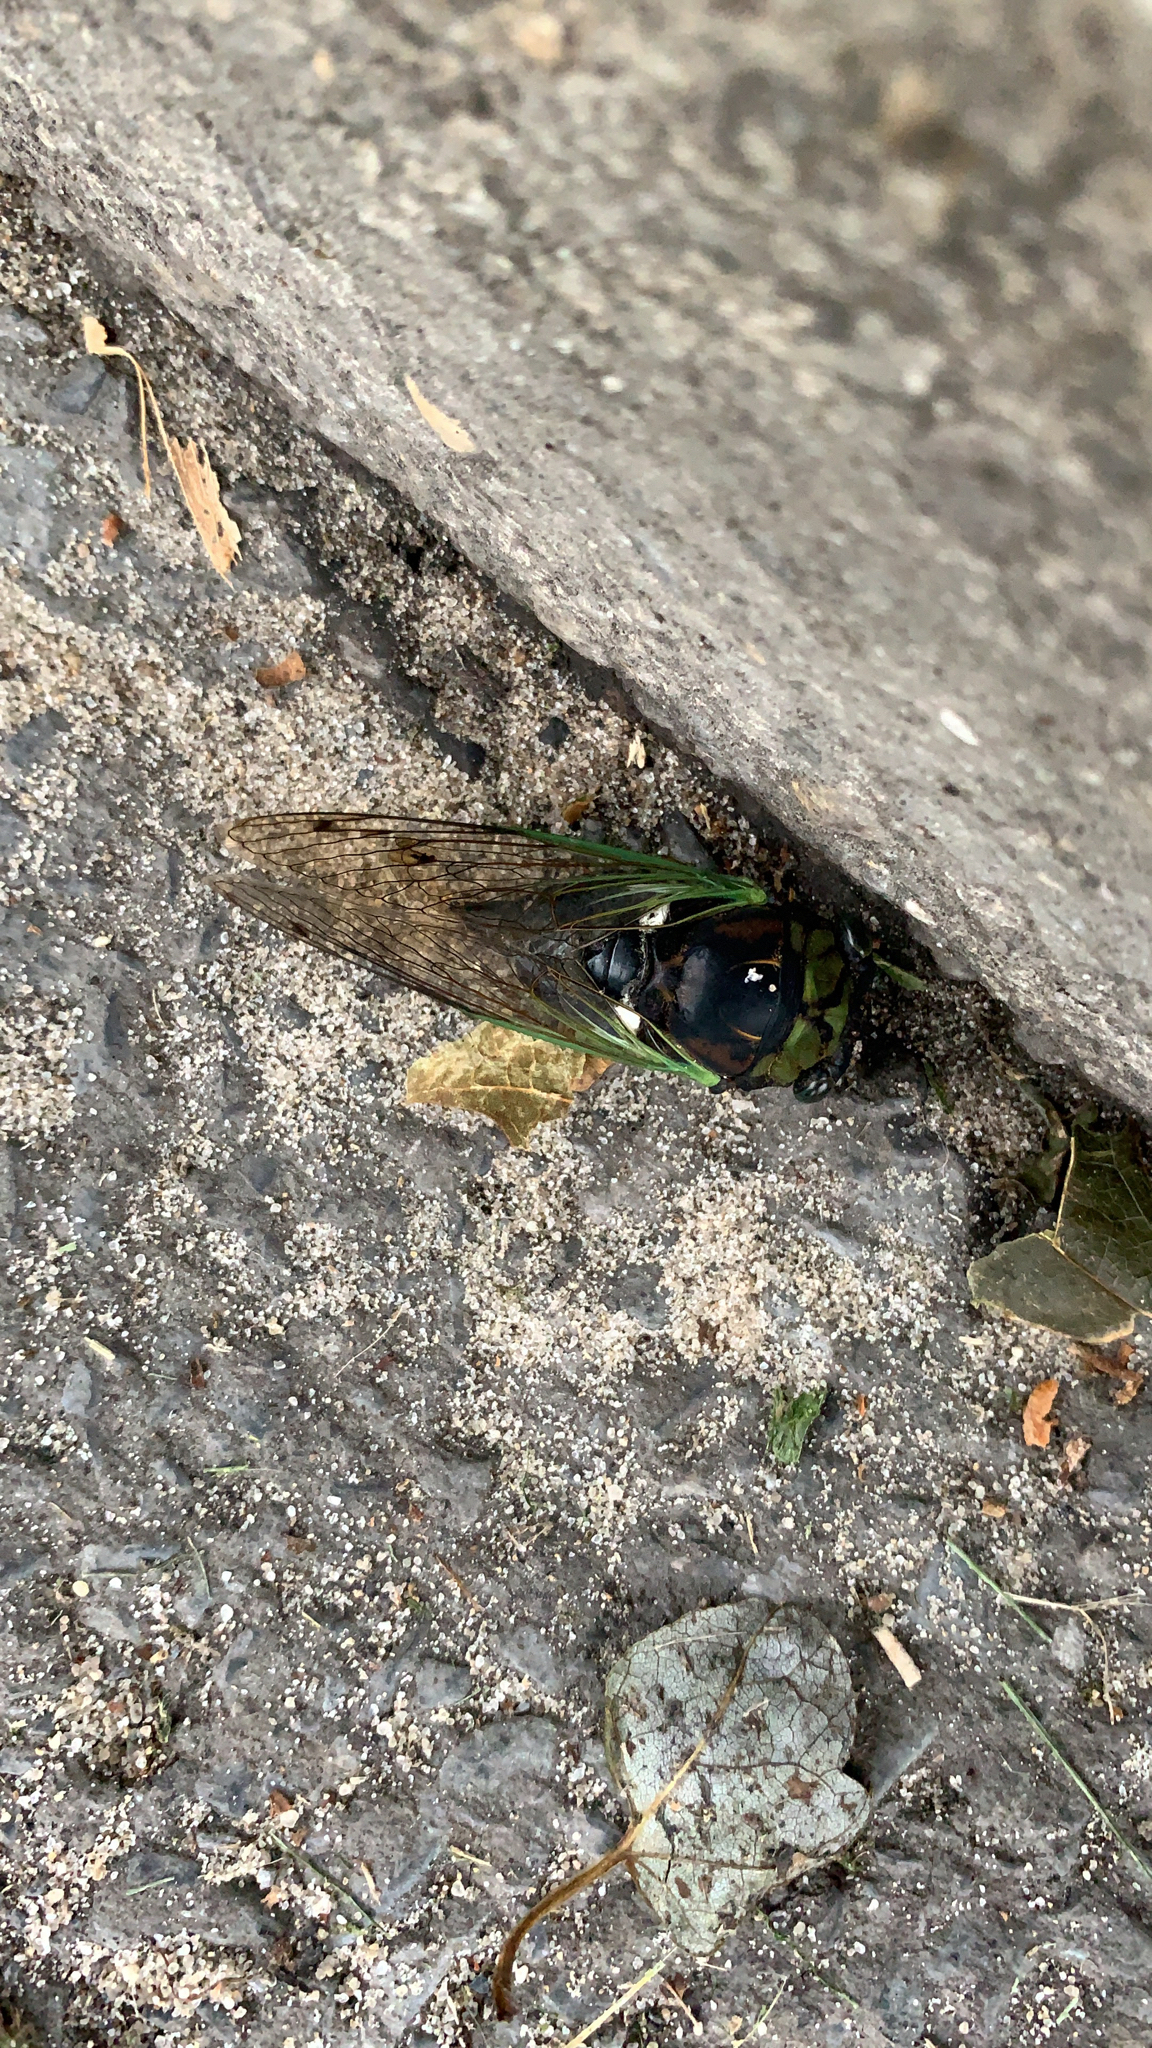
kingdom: Animalia
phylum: Arthropoda
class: Insecta
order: Hemiptera
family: Cicadidae
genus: Neotibicen
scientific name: Neotibicen tibicen
